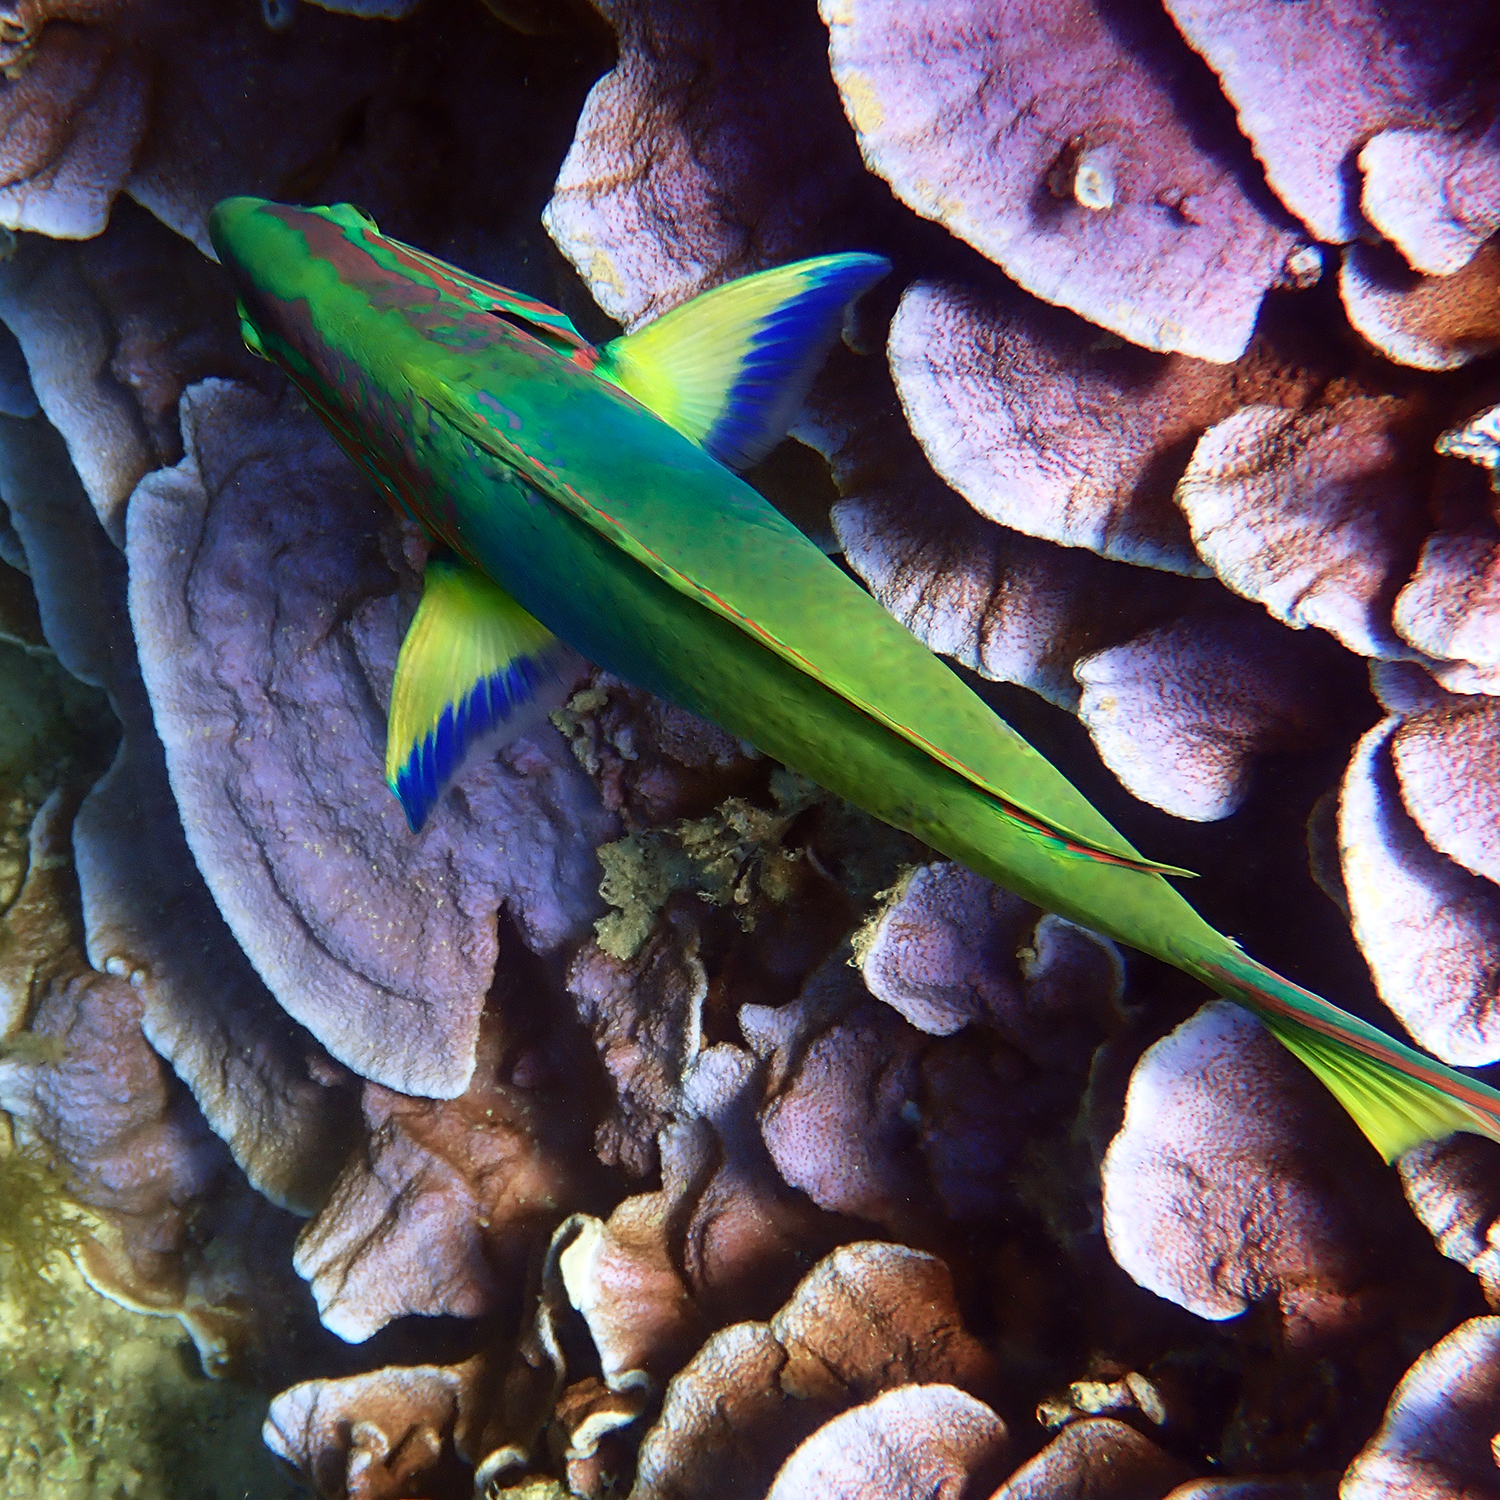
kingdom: Animalia
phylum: Chordata
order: Perciformes
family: Labridae
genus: Thalassoma
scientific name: Thalassoma lutescens
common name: Green moon wrasse
